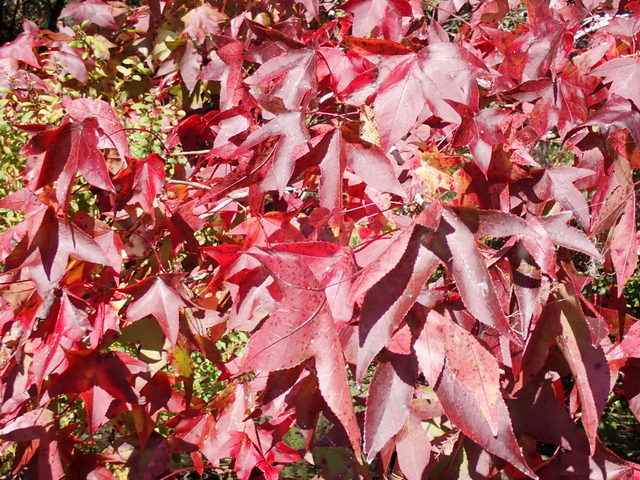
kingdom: Plantae
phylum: Tracheophyta
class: Magnoliopsida
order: Saxifragales
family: Altingiaceae
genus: Liquidambar
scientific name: Liquidambar styraciflua
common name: Sweet gum
